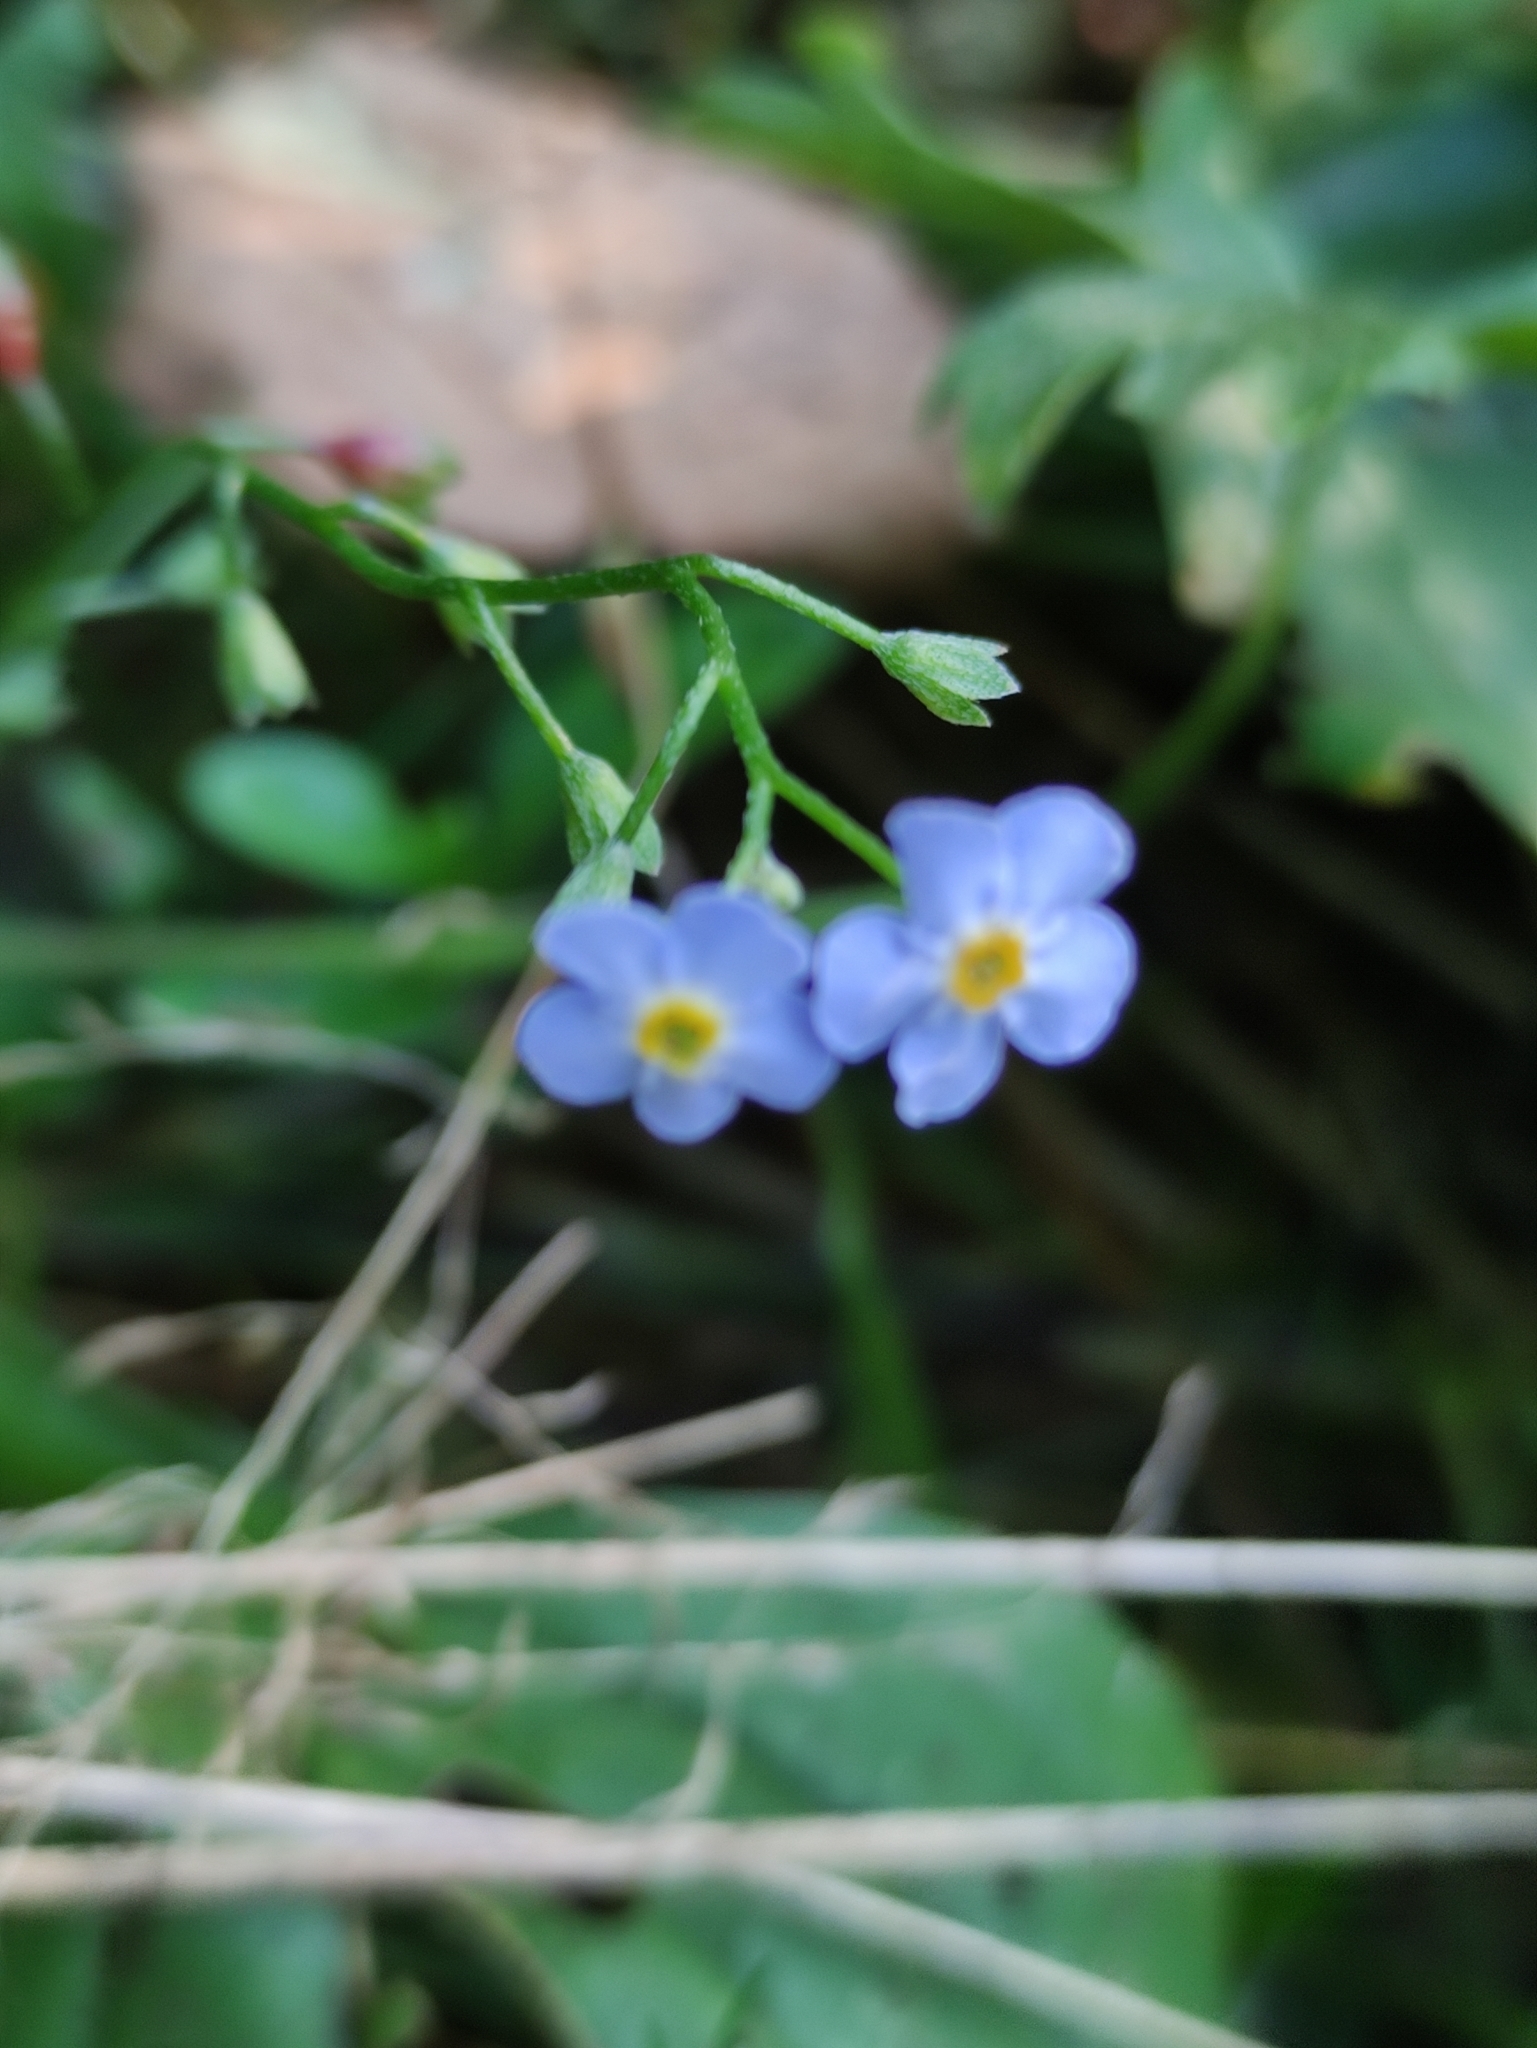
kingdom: Plantae
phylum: Tracheophyta
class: Magnoliopsida
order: Boraginales
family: Boraginaceae
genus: Myosotis
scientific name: Myosotis scorpioides
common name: Water forget-me-not
